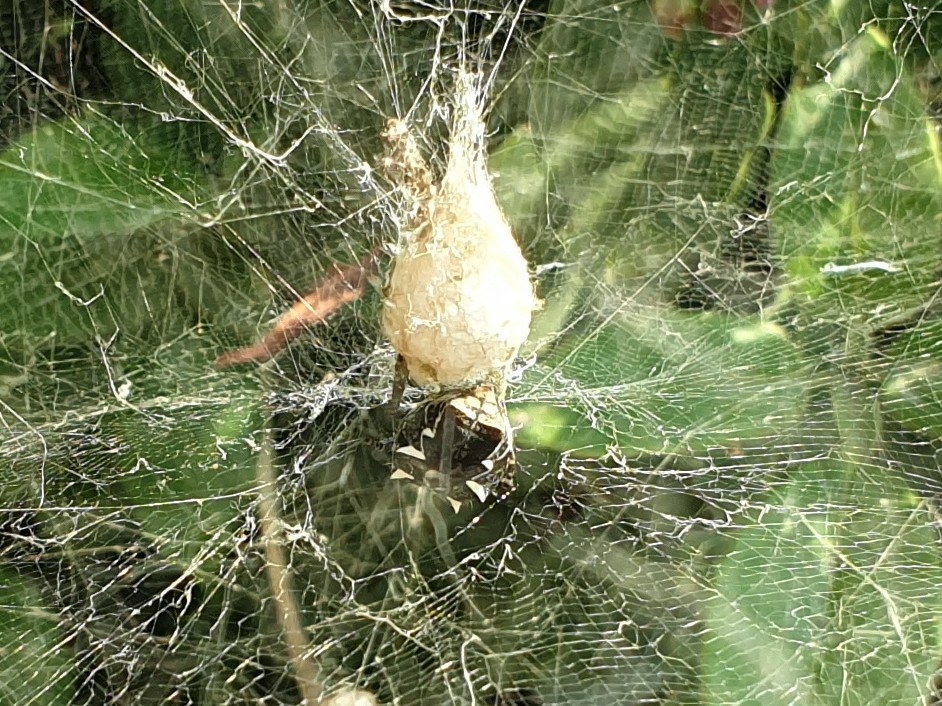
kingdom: Animalia
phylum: Arthropoda
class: Arachnida
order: Araneae
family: Araneidae
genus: Cyrtophora
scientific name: Cyrtophora citricola
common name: Orb weavers
